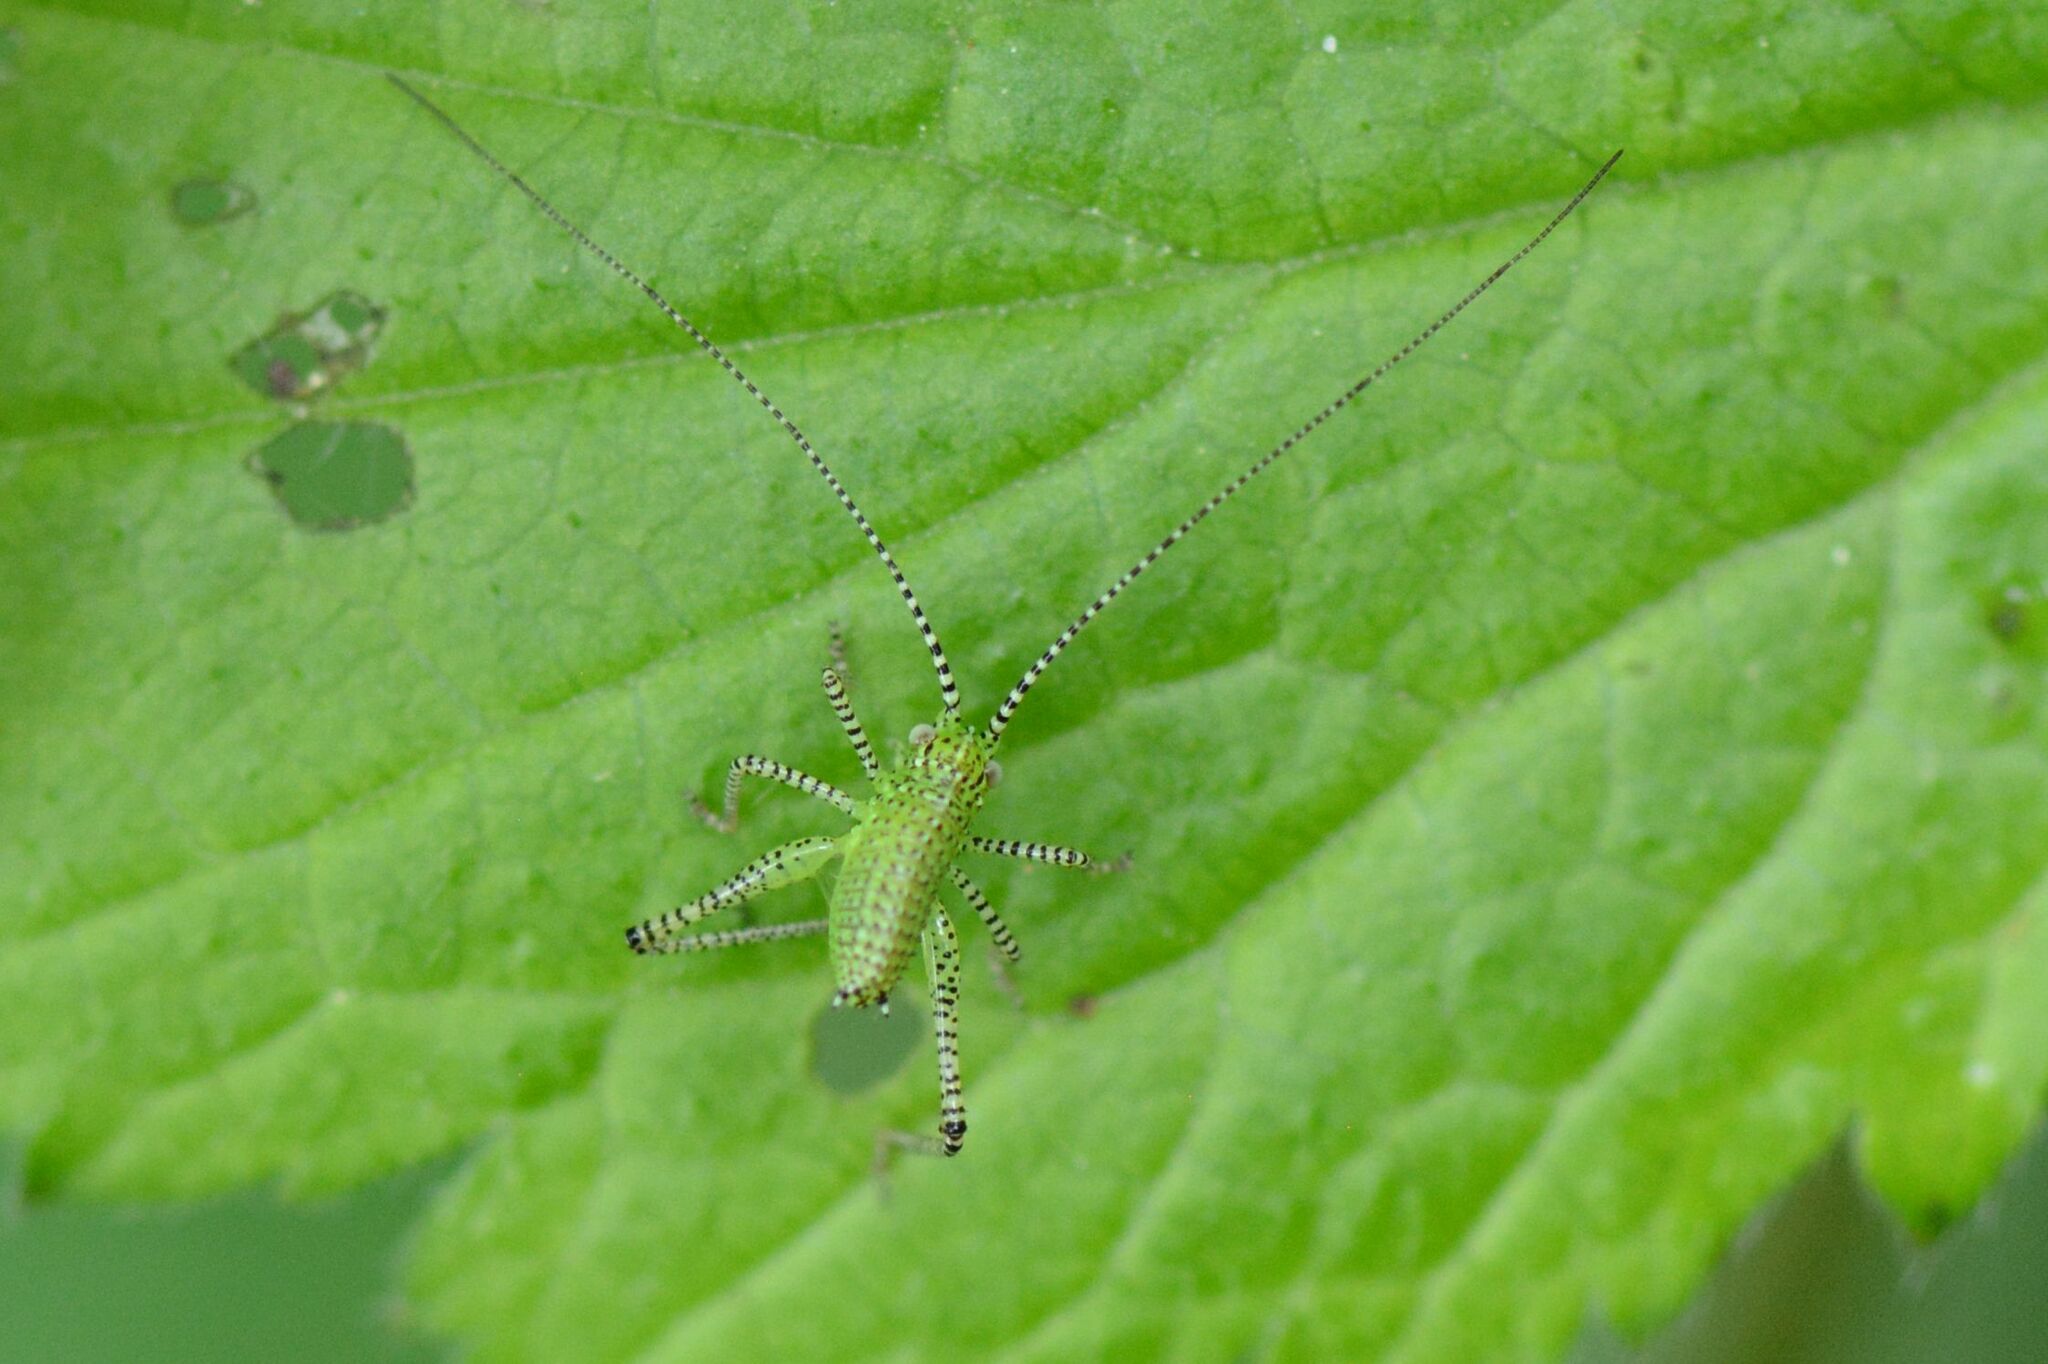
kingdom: Animalia
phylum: Arthropoda
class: Insecta
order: Orthoptera
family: Tettigoniidae
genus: Leptophyes
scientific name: Leptophyes punctatissima
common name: Speckled bush-cricket
